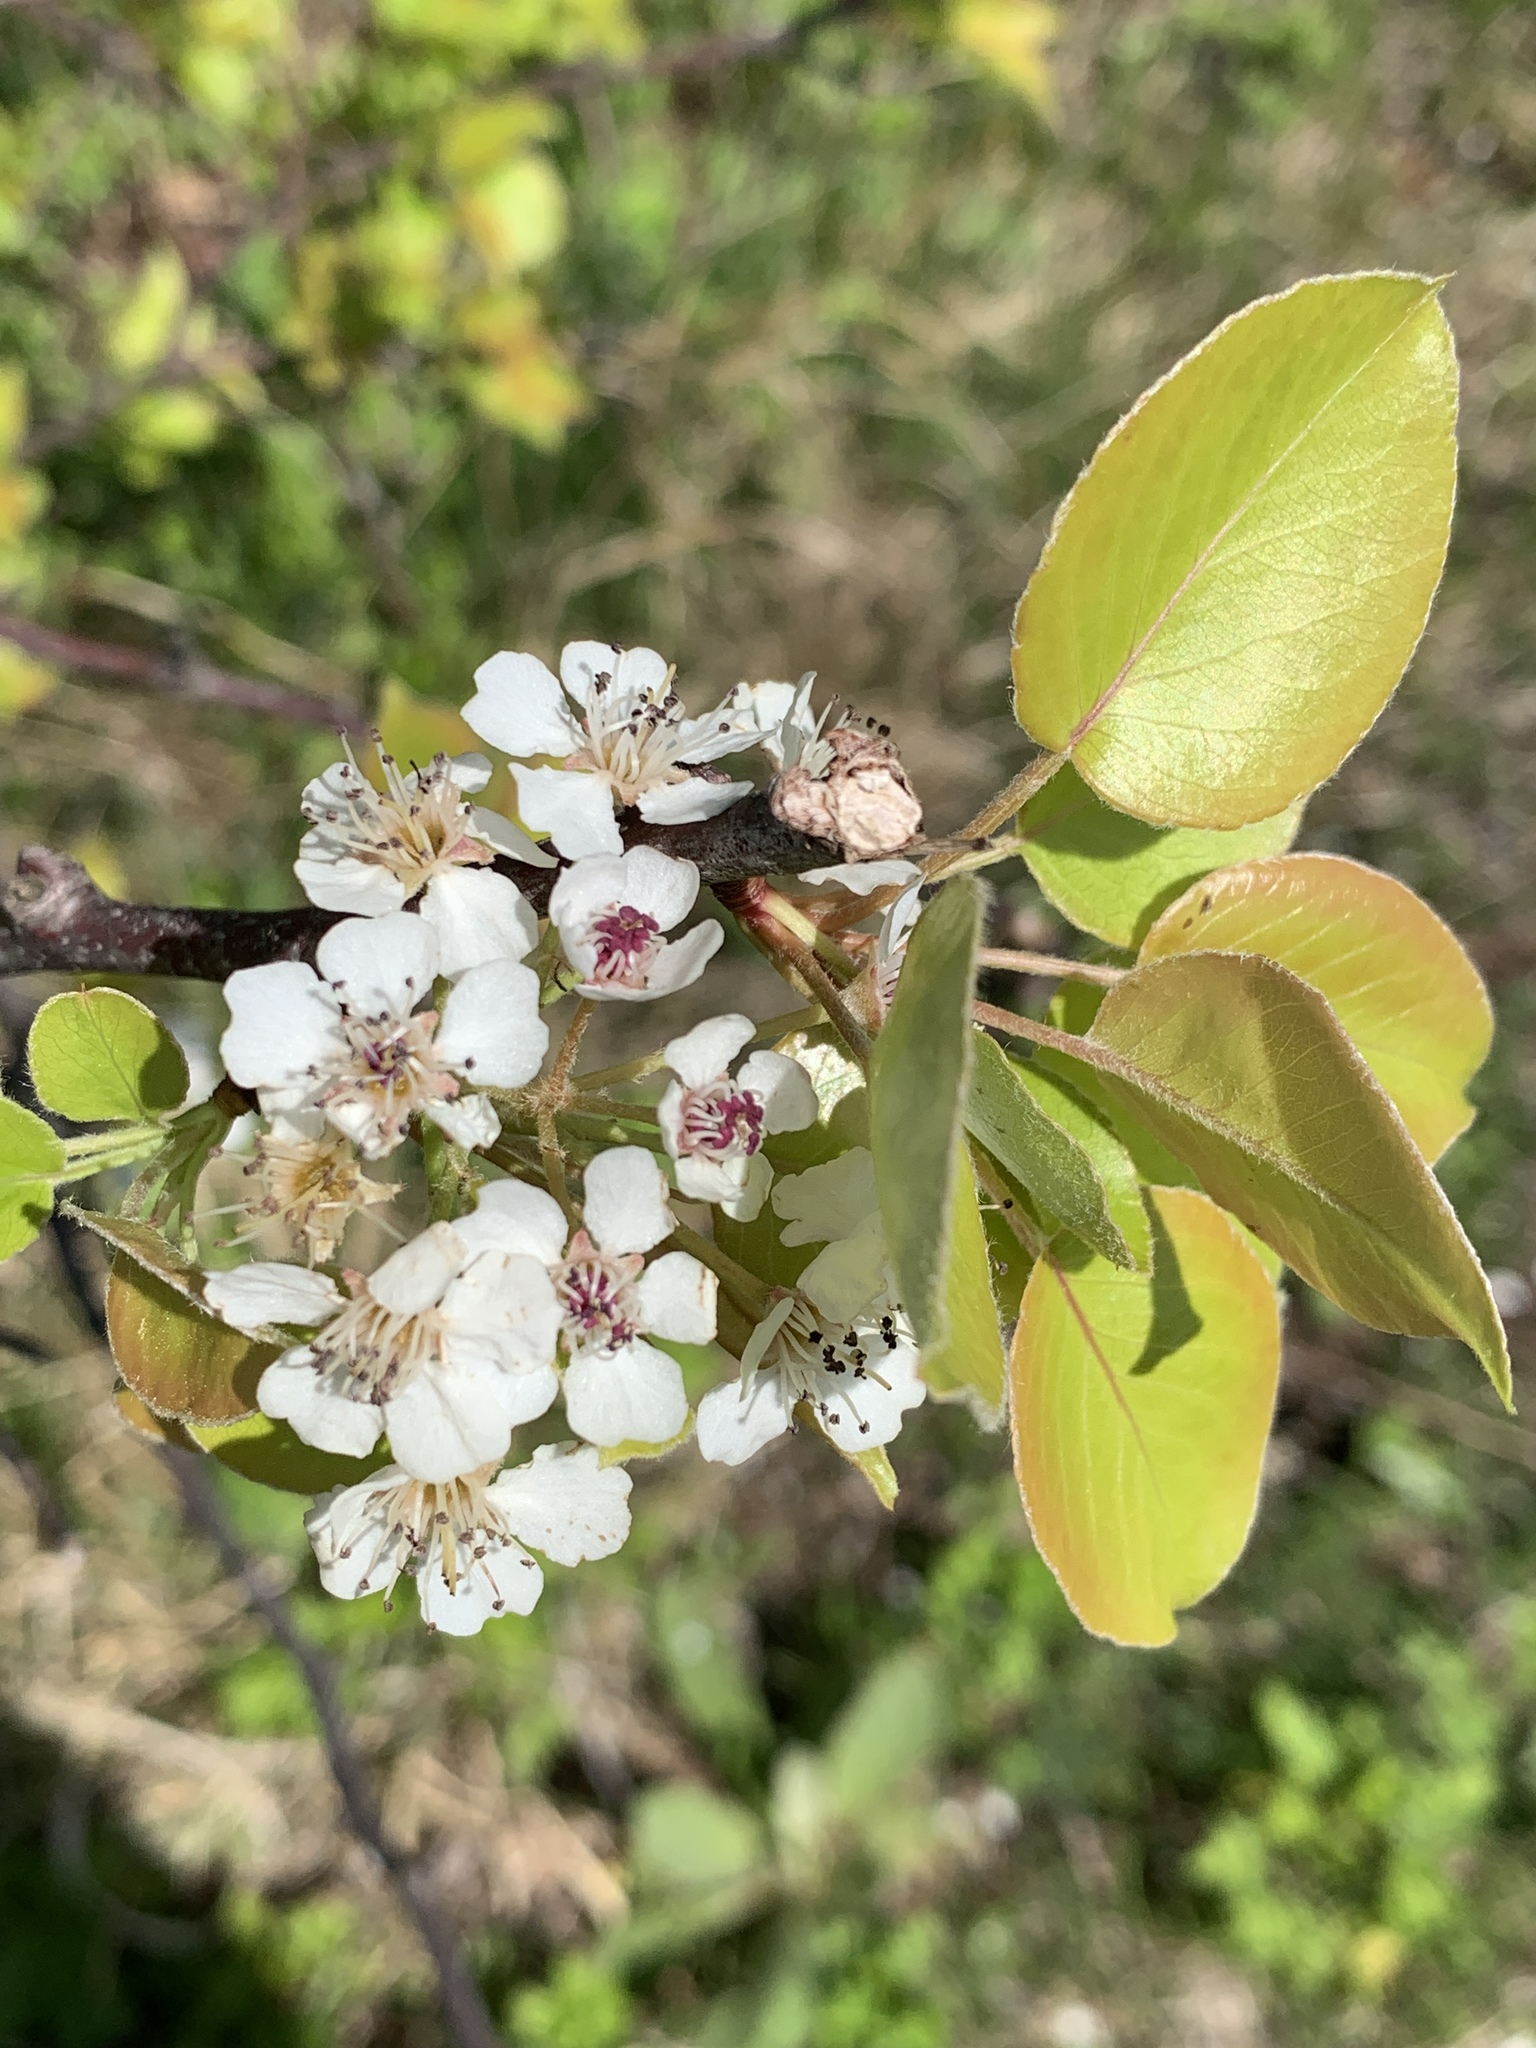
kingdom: Plantae
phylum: Tracheophyta
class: Magnoliopsida
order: Rosales
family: Rosaceae
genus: Pyrus
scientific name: Pyrus calleryana
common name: Callery pear
